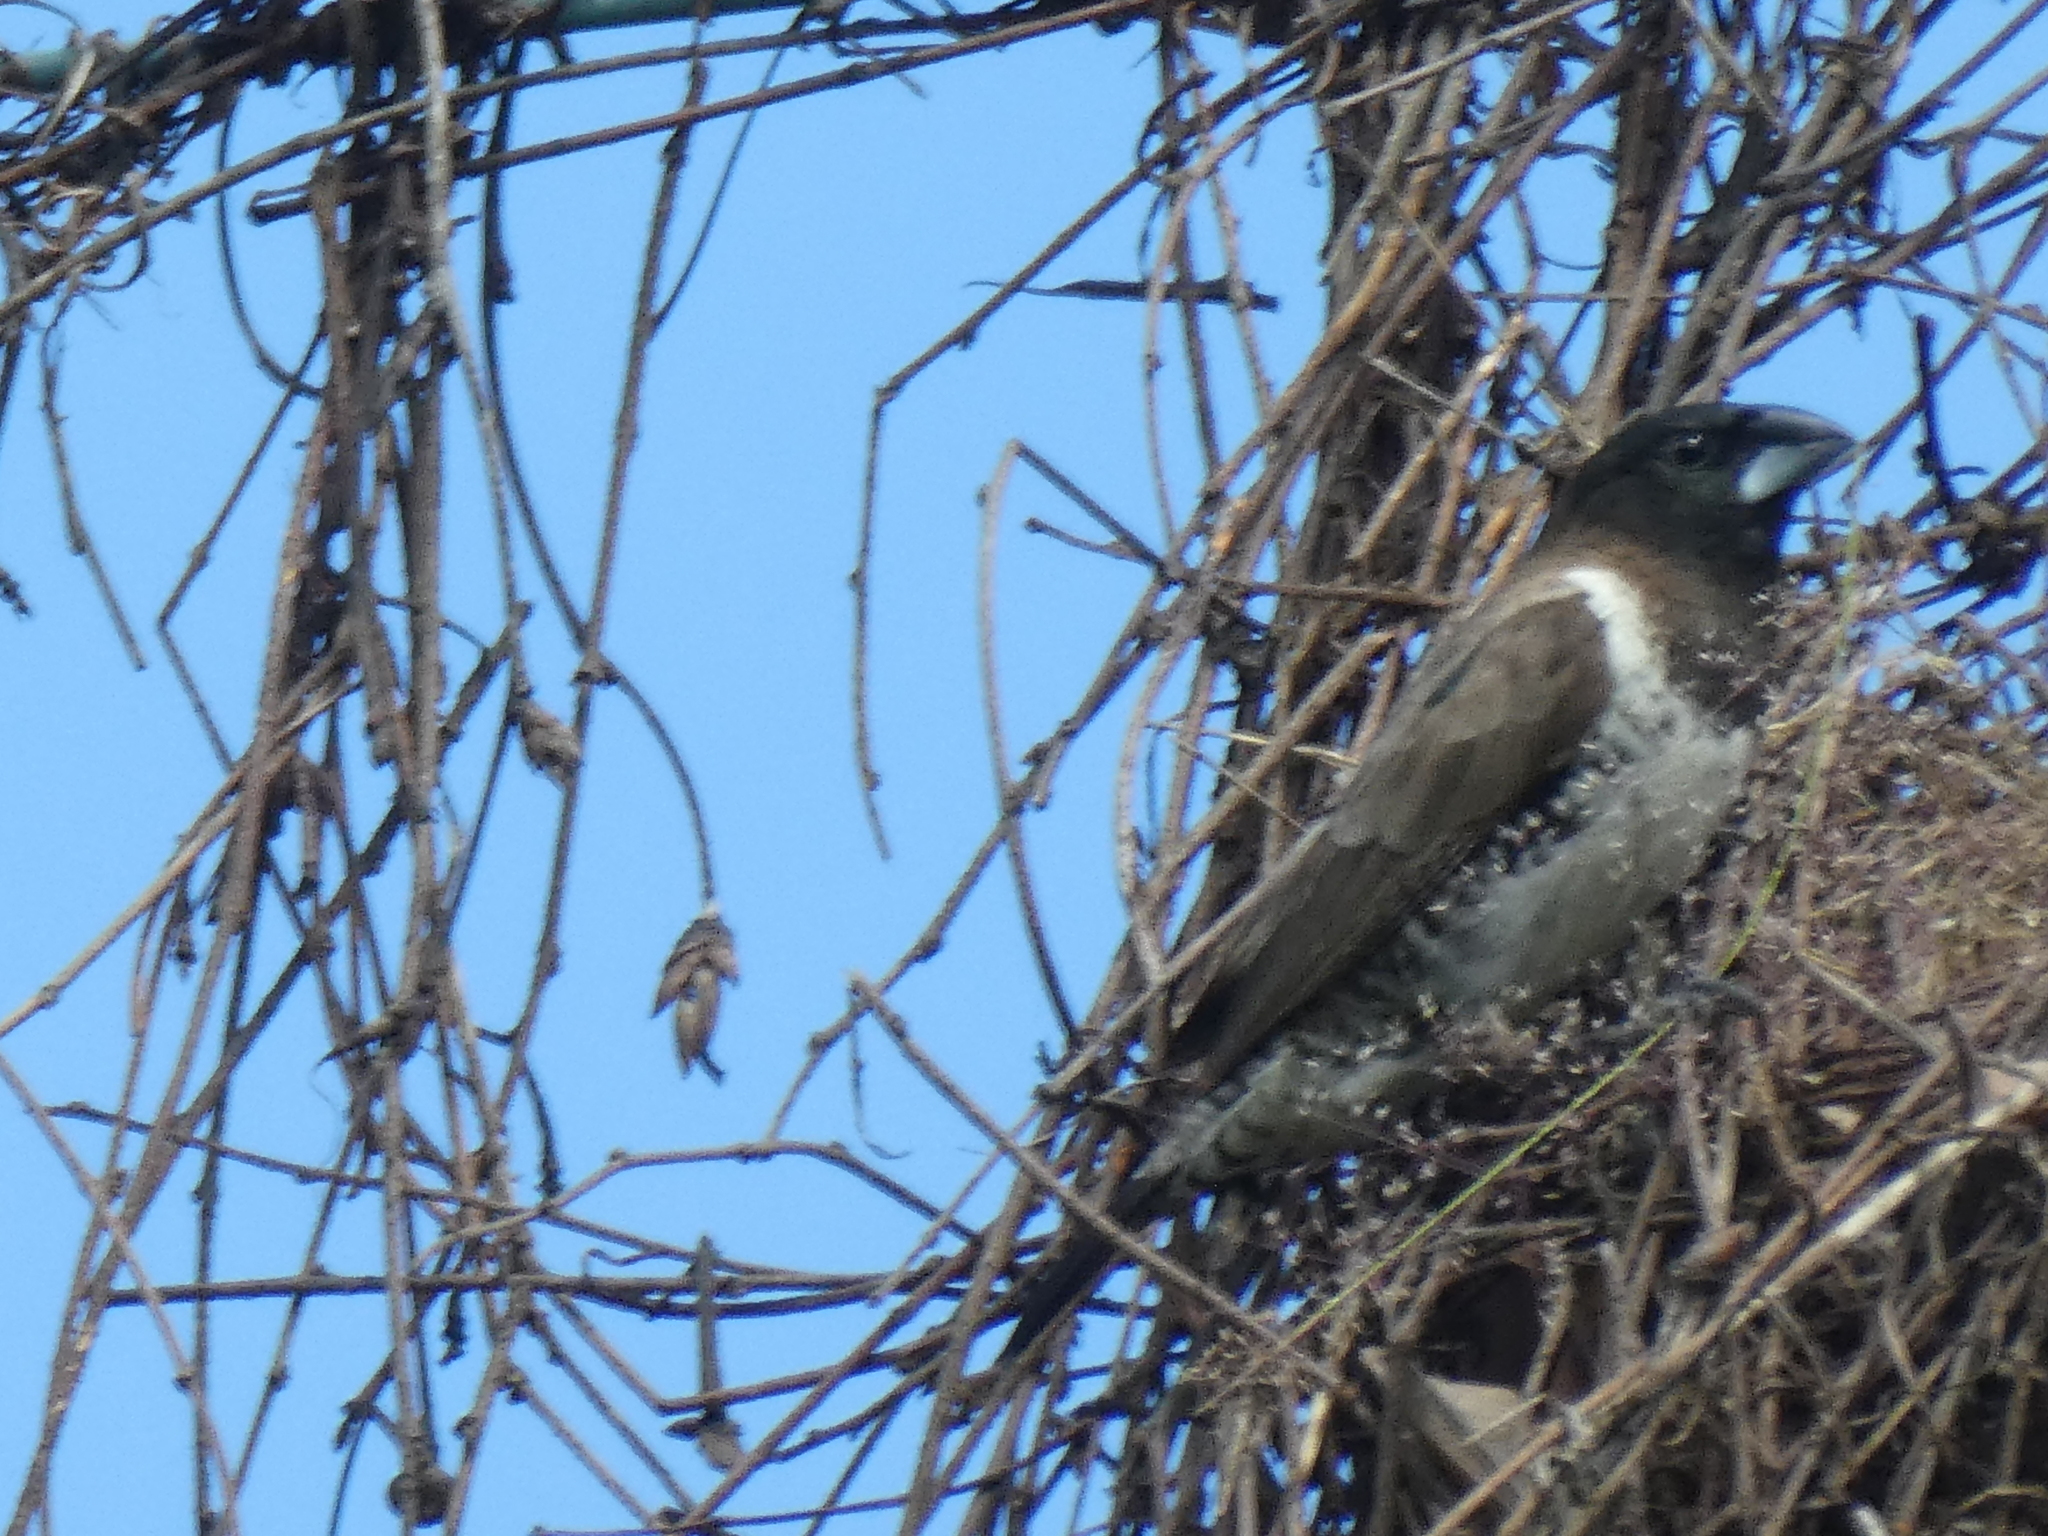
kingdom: Animalia
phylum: Chordata
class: Aves
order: Passeriformes
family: Estrildidae
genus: Lonchura
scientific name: Lonchura cucullata
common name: Bronze mannikin
